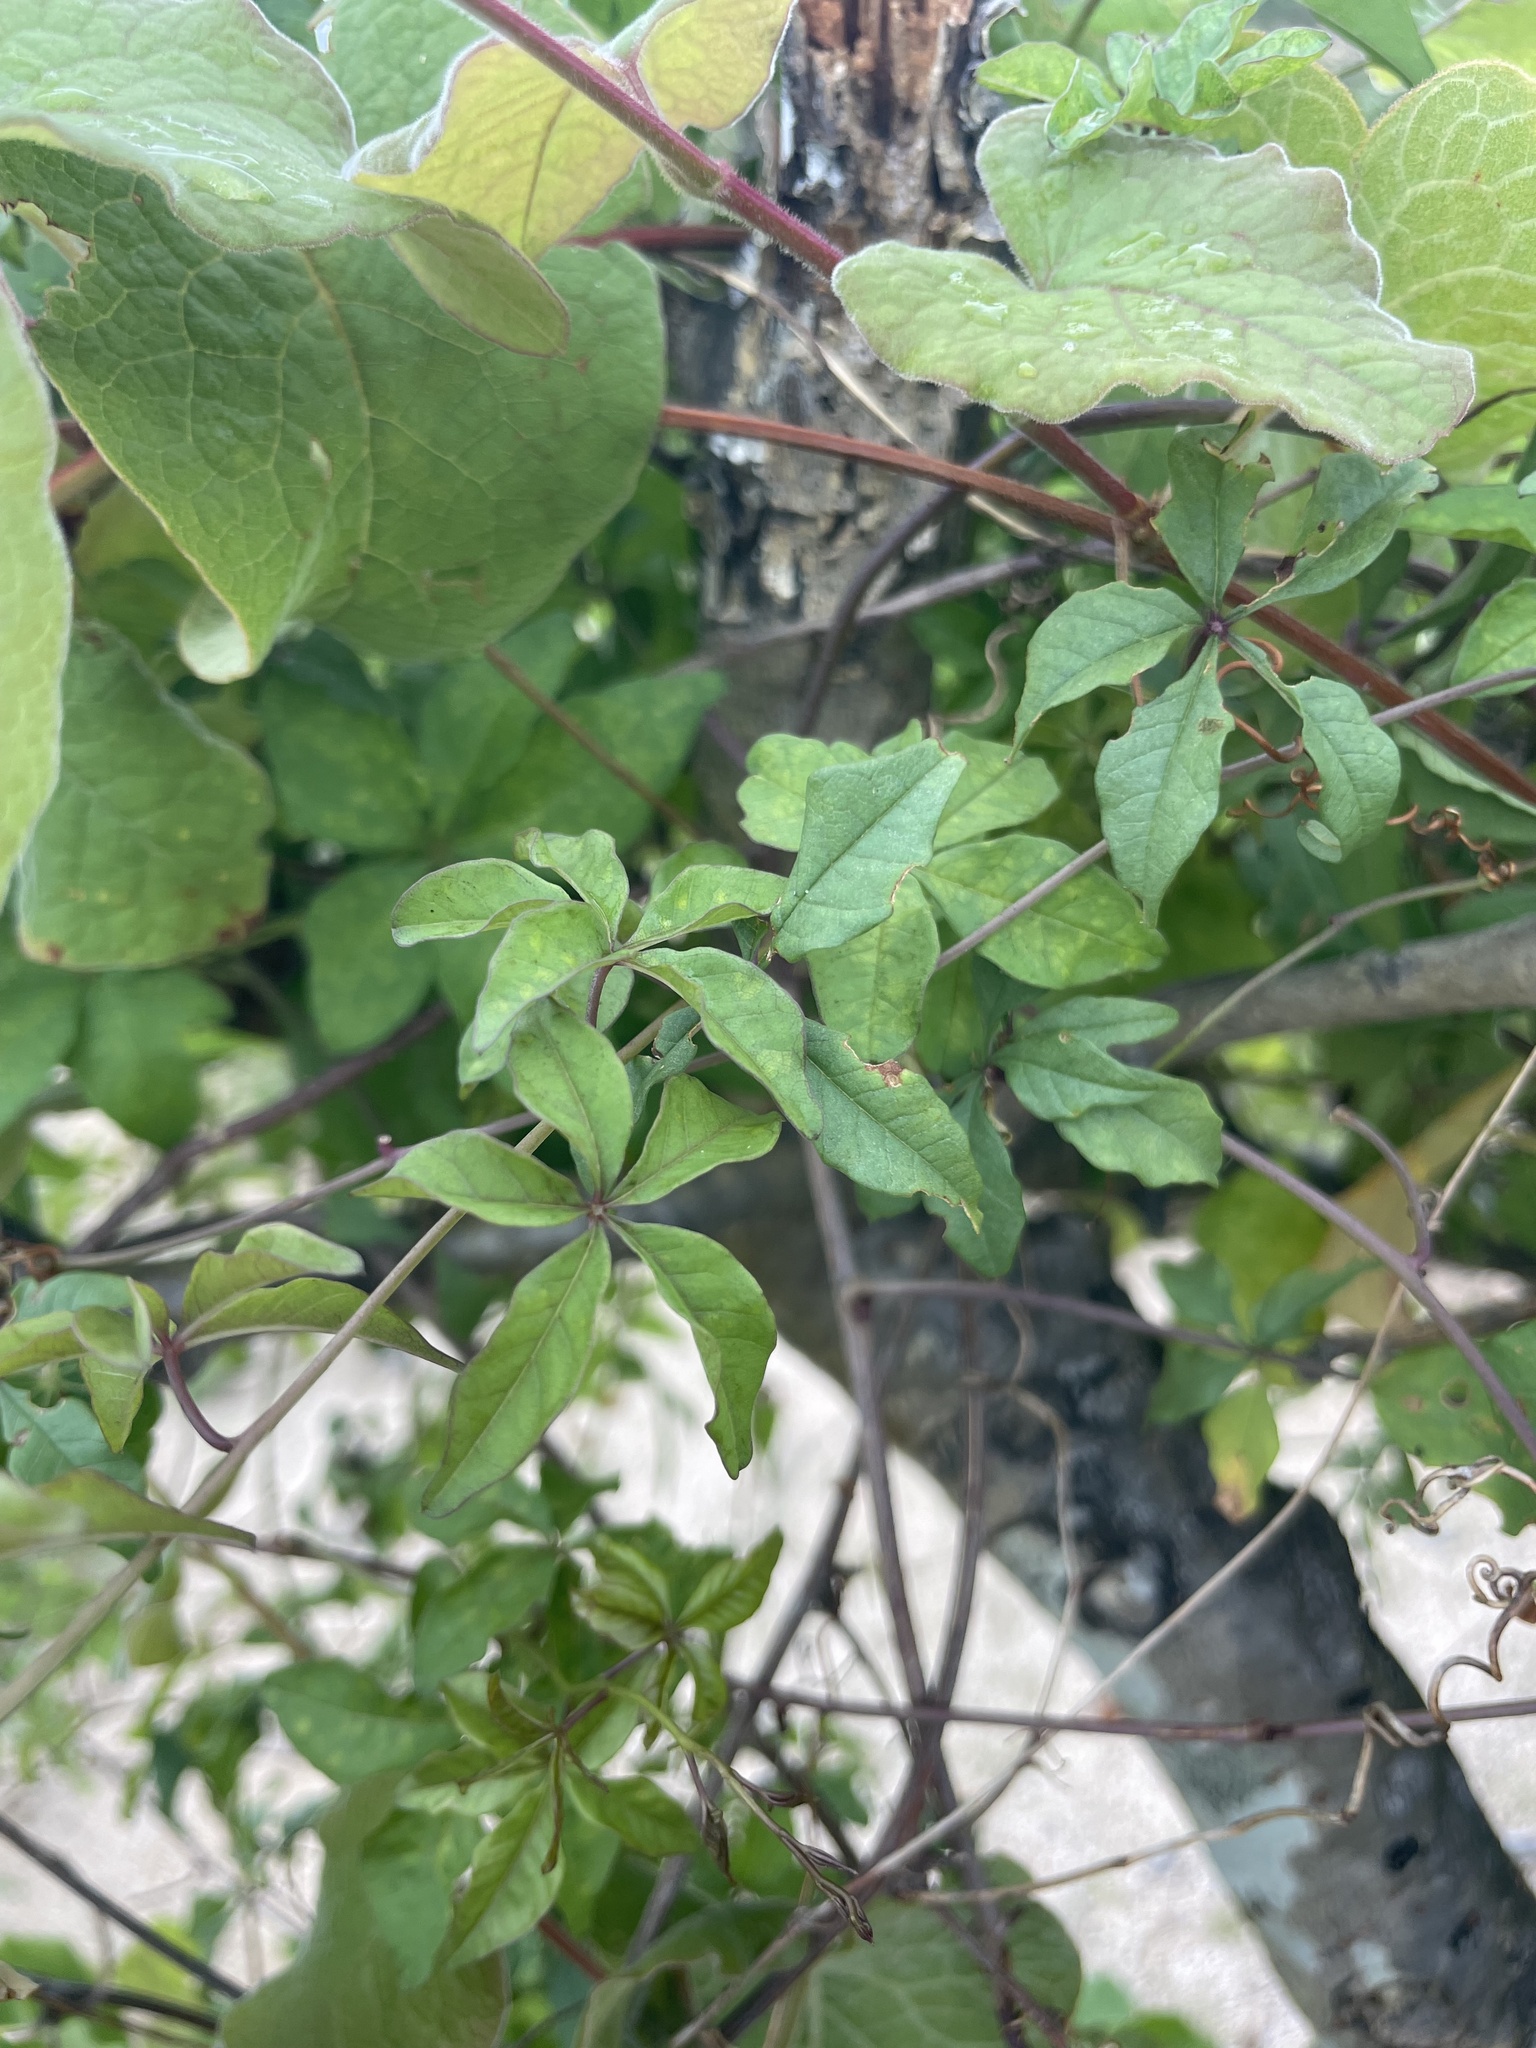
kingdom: Plantae
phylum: Tracheophyta
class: Magnoliopsida
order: Solanales
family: Convolvulaceae
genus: Distimake
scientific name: Distimake aureus
